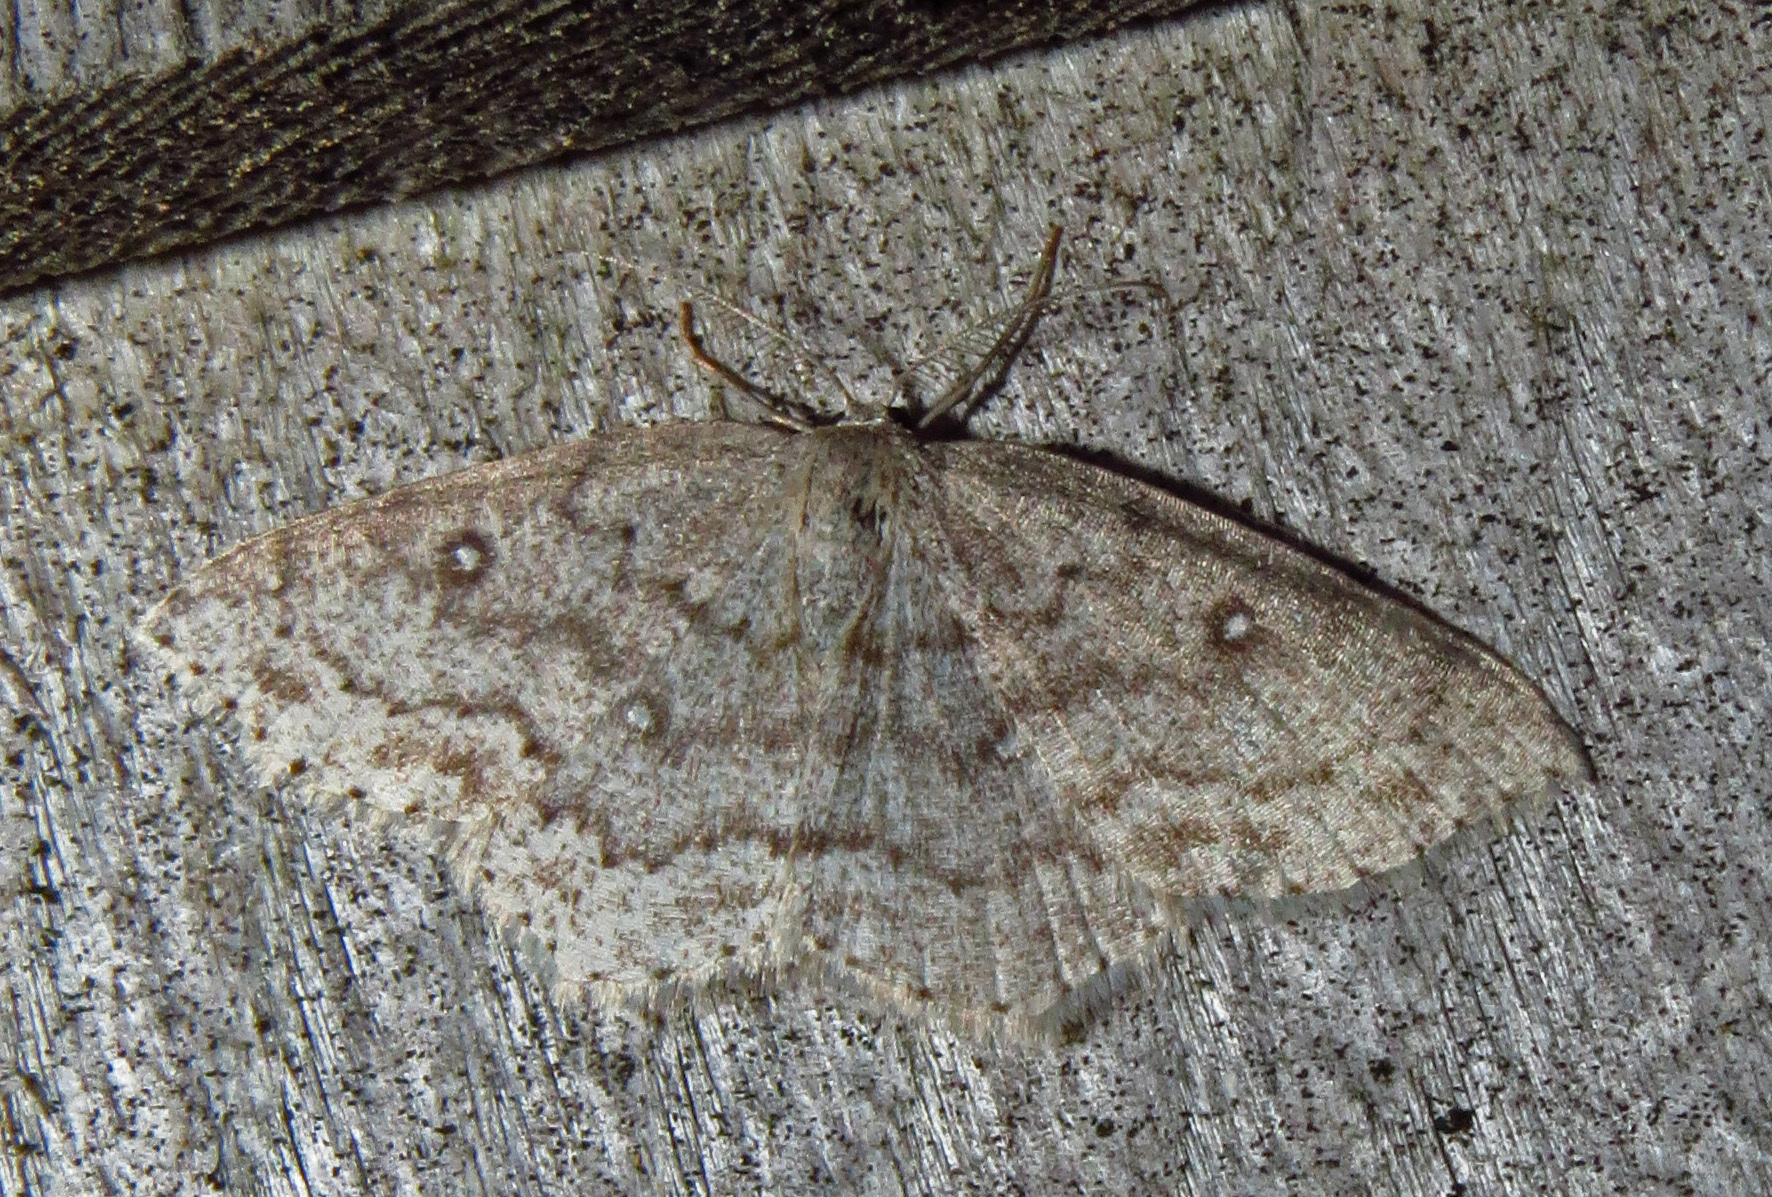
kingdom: Animalia
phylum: Arthropoda
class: Insecta
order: Lepidoptera
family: Geometridae
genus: Cyclophora
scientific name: Cyclophora pendulinaria
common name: Sweet fern geometer
